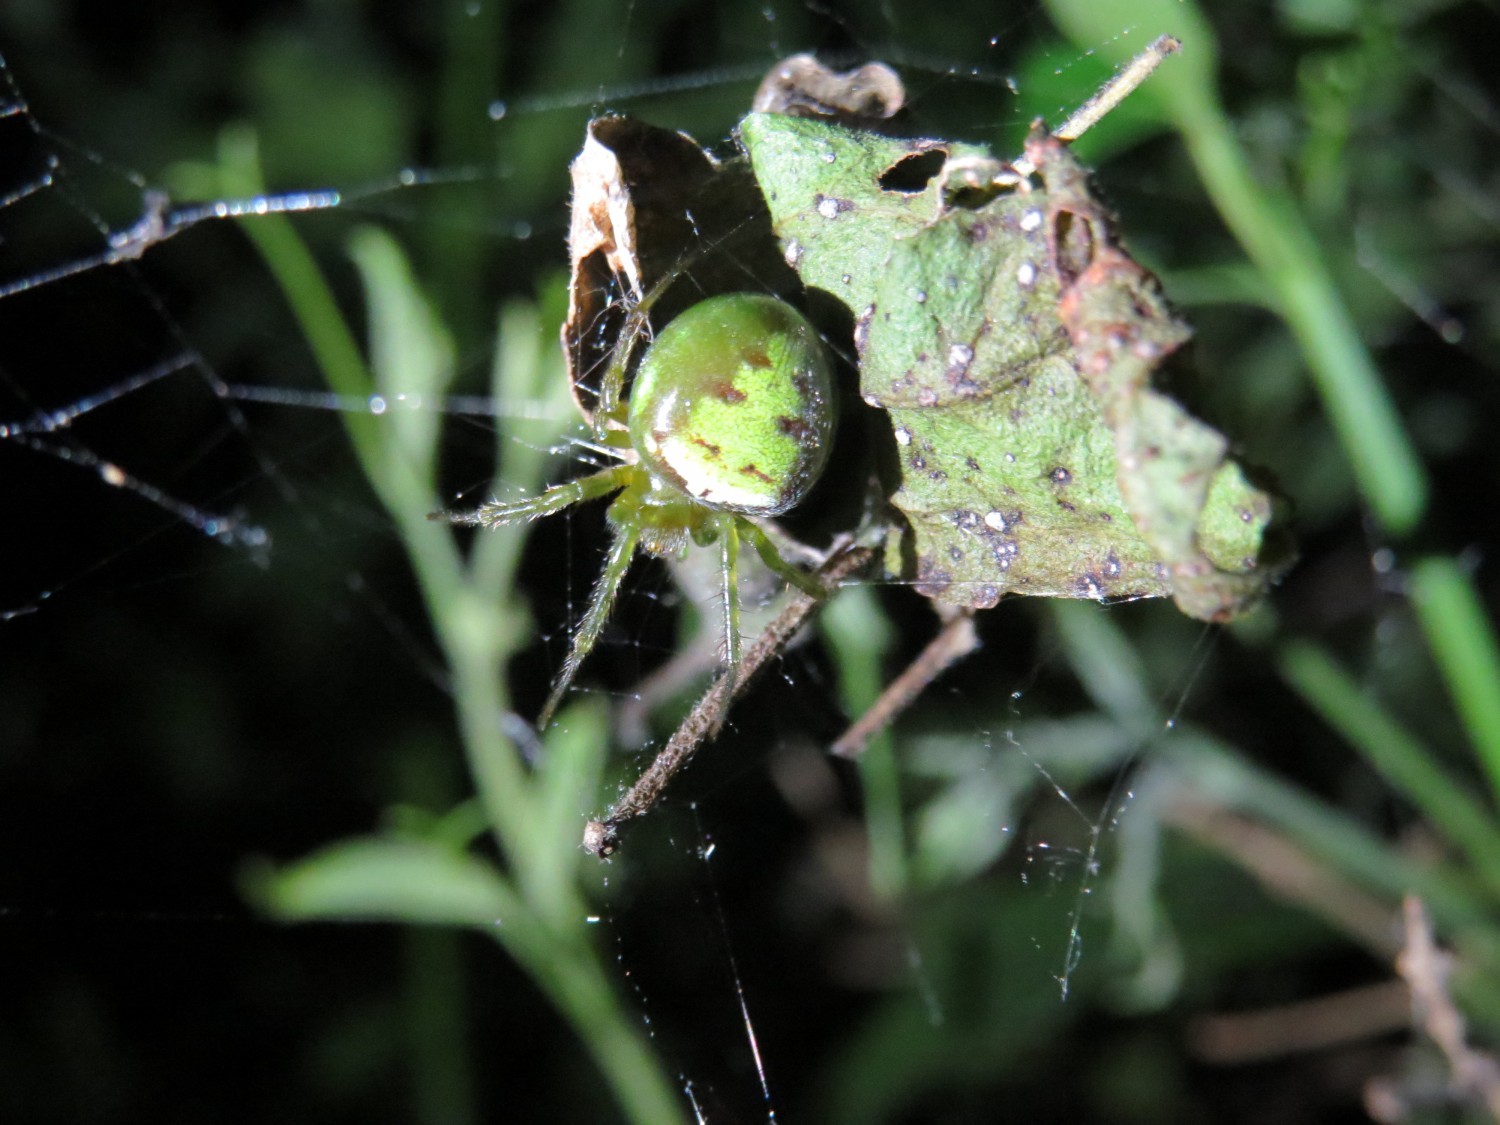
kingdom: Animalia
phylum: Arthropoda
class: Arachnida
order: Araneae
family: Araneidae
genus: Araneus
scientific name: Araneus unanimus
